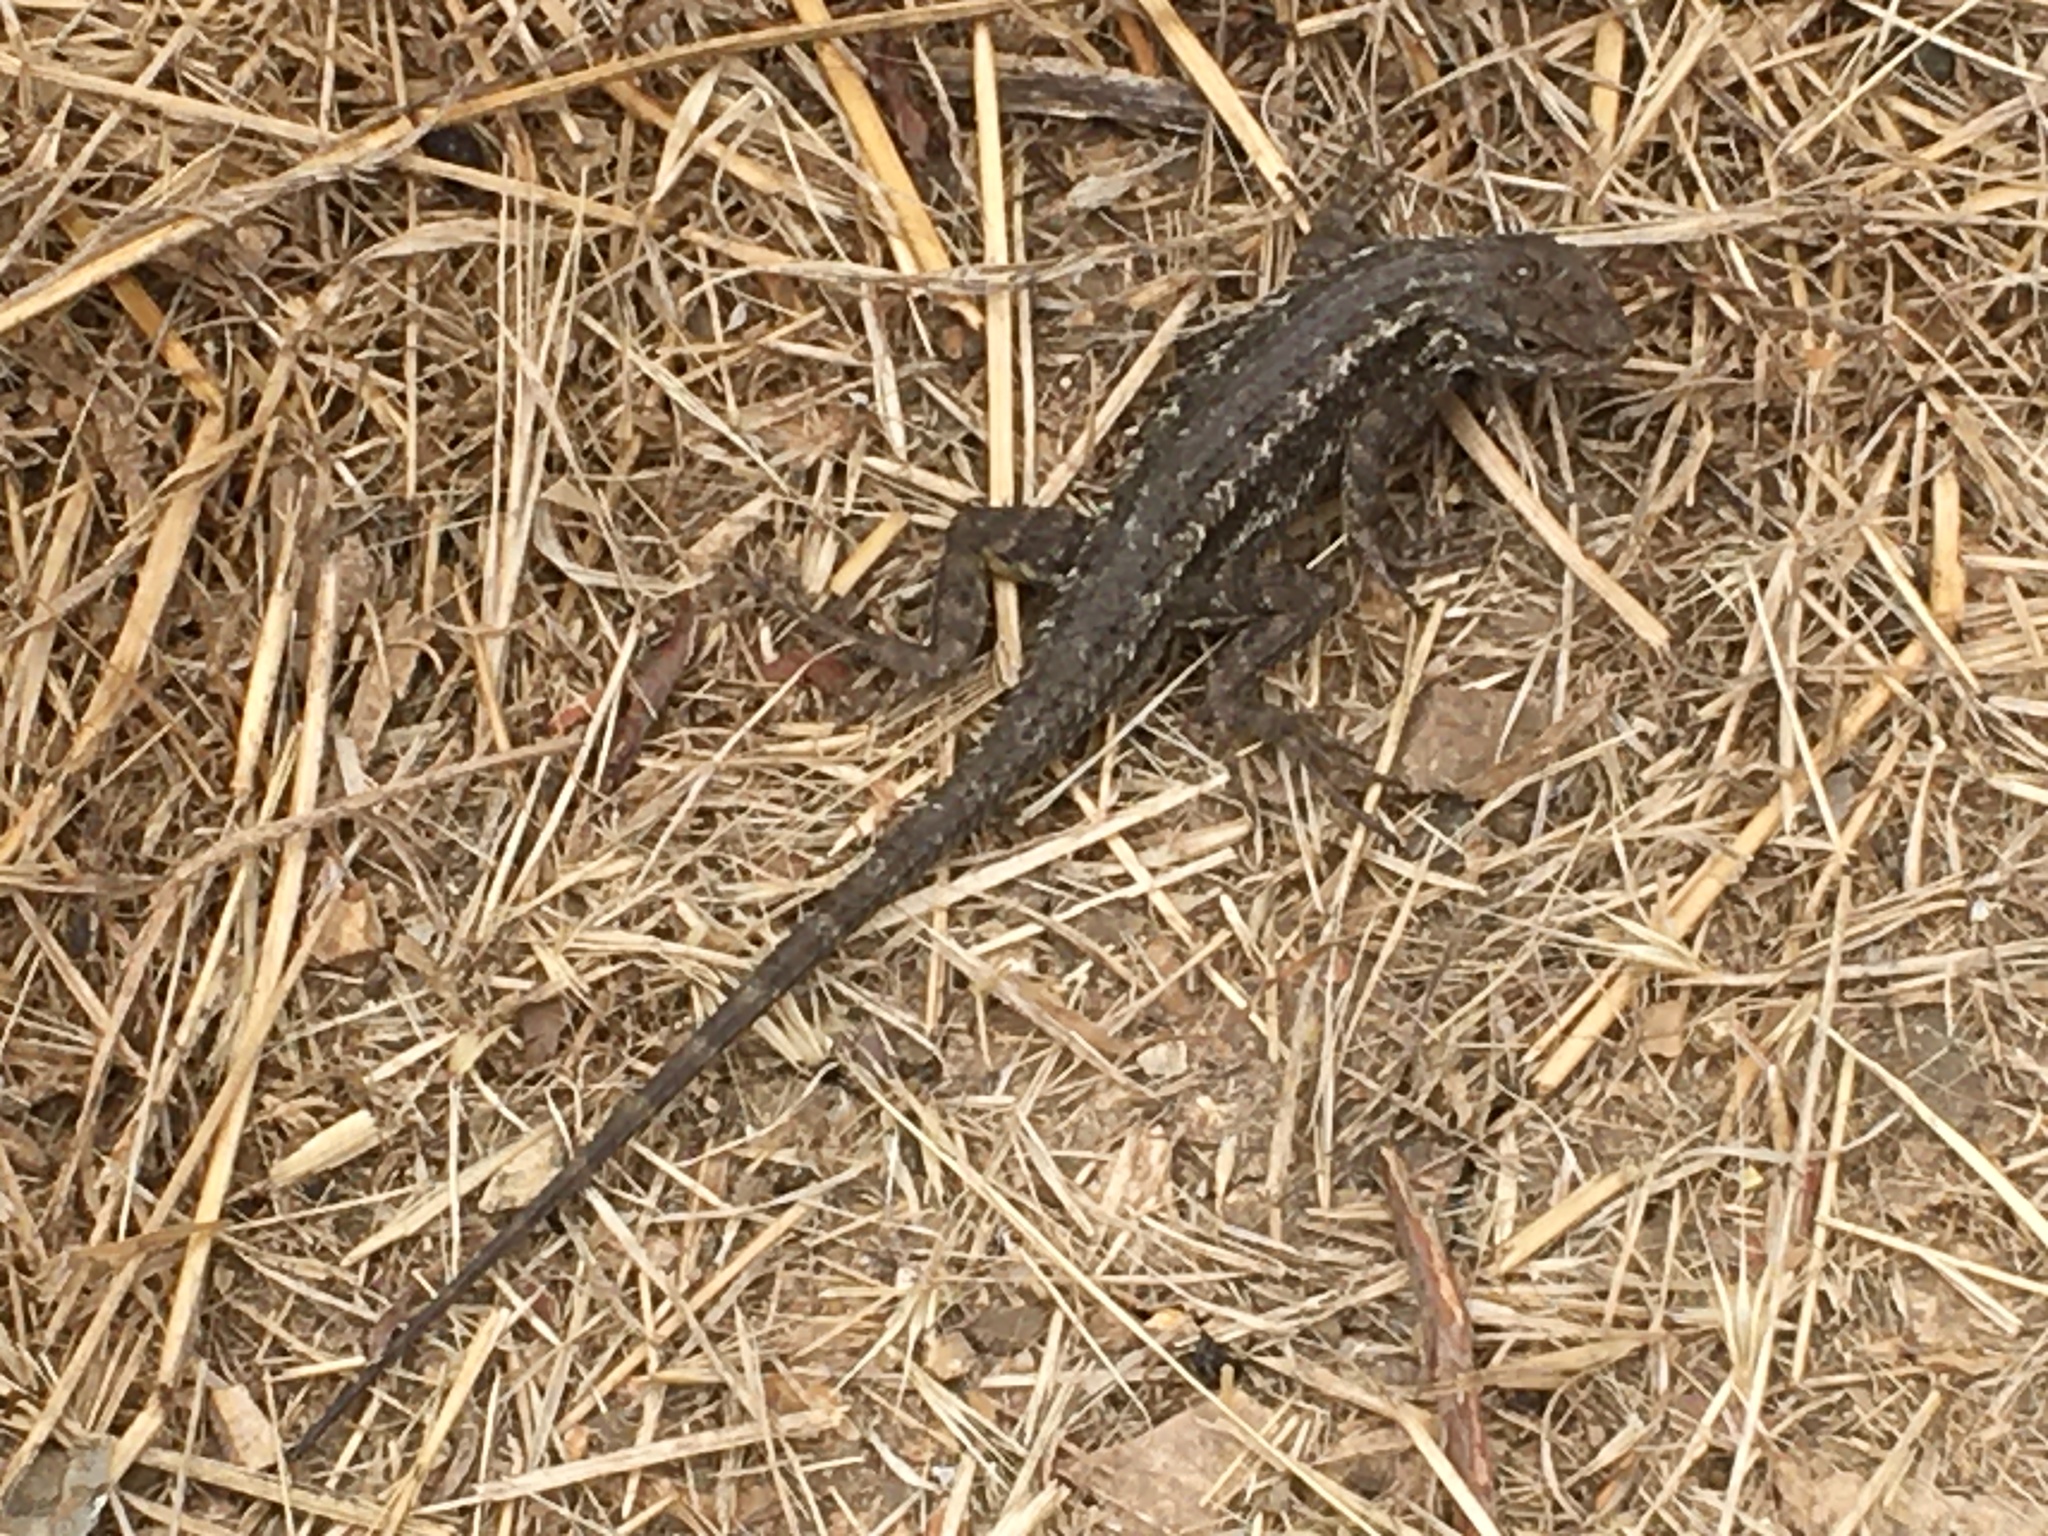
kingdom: Animalia
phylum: Chordata
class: Squamata
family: Phrynosomatidae
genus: Sceloporus
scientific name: Sceloporus occidentalis
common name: Western fence lizard
